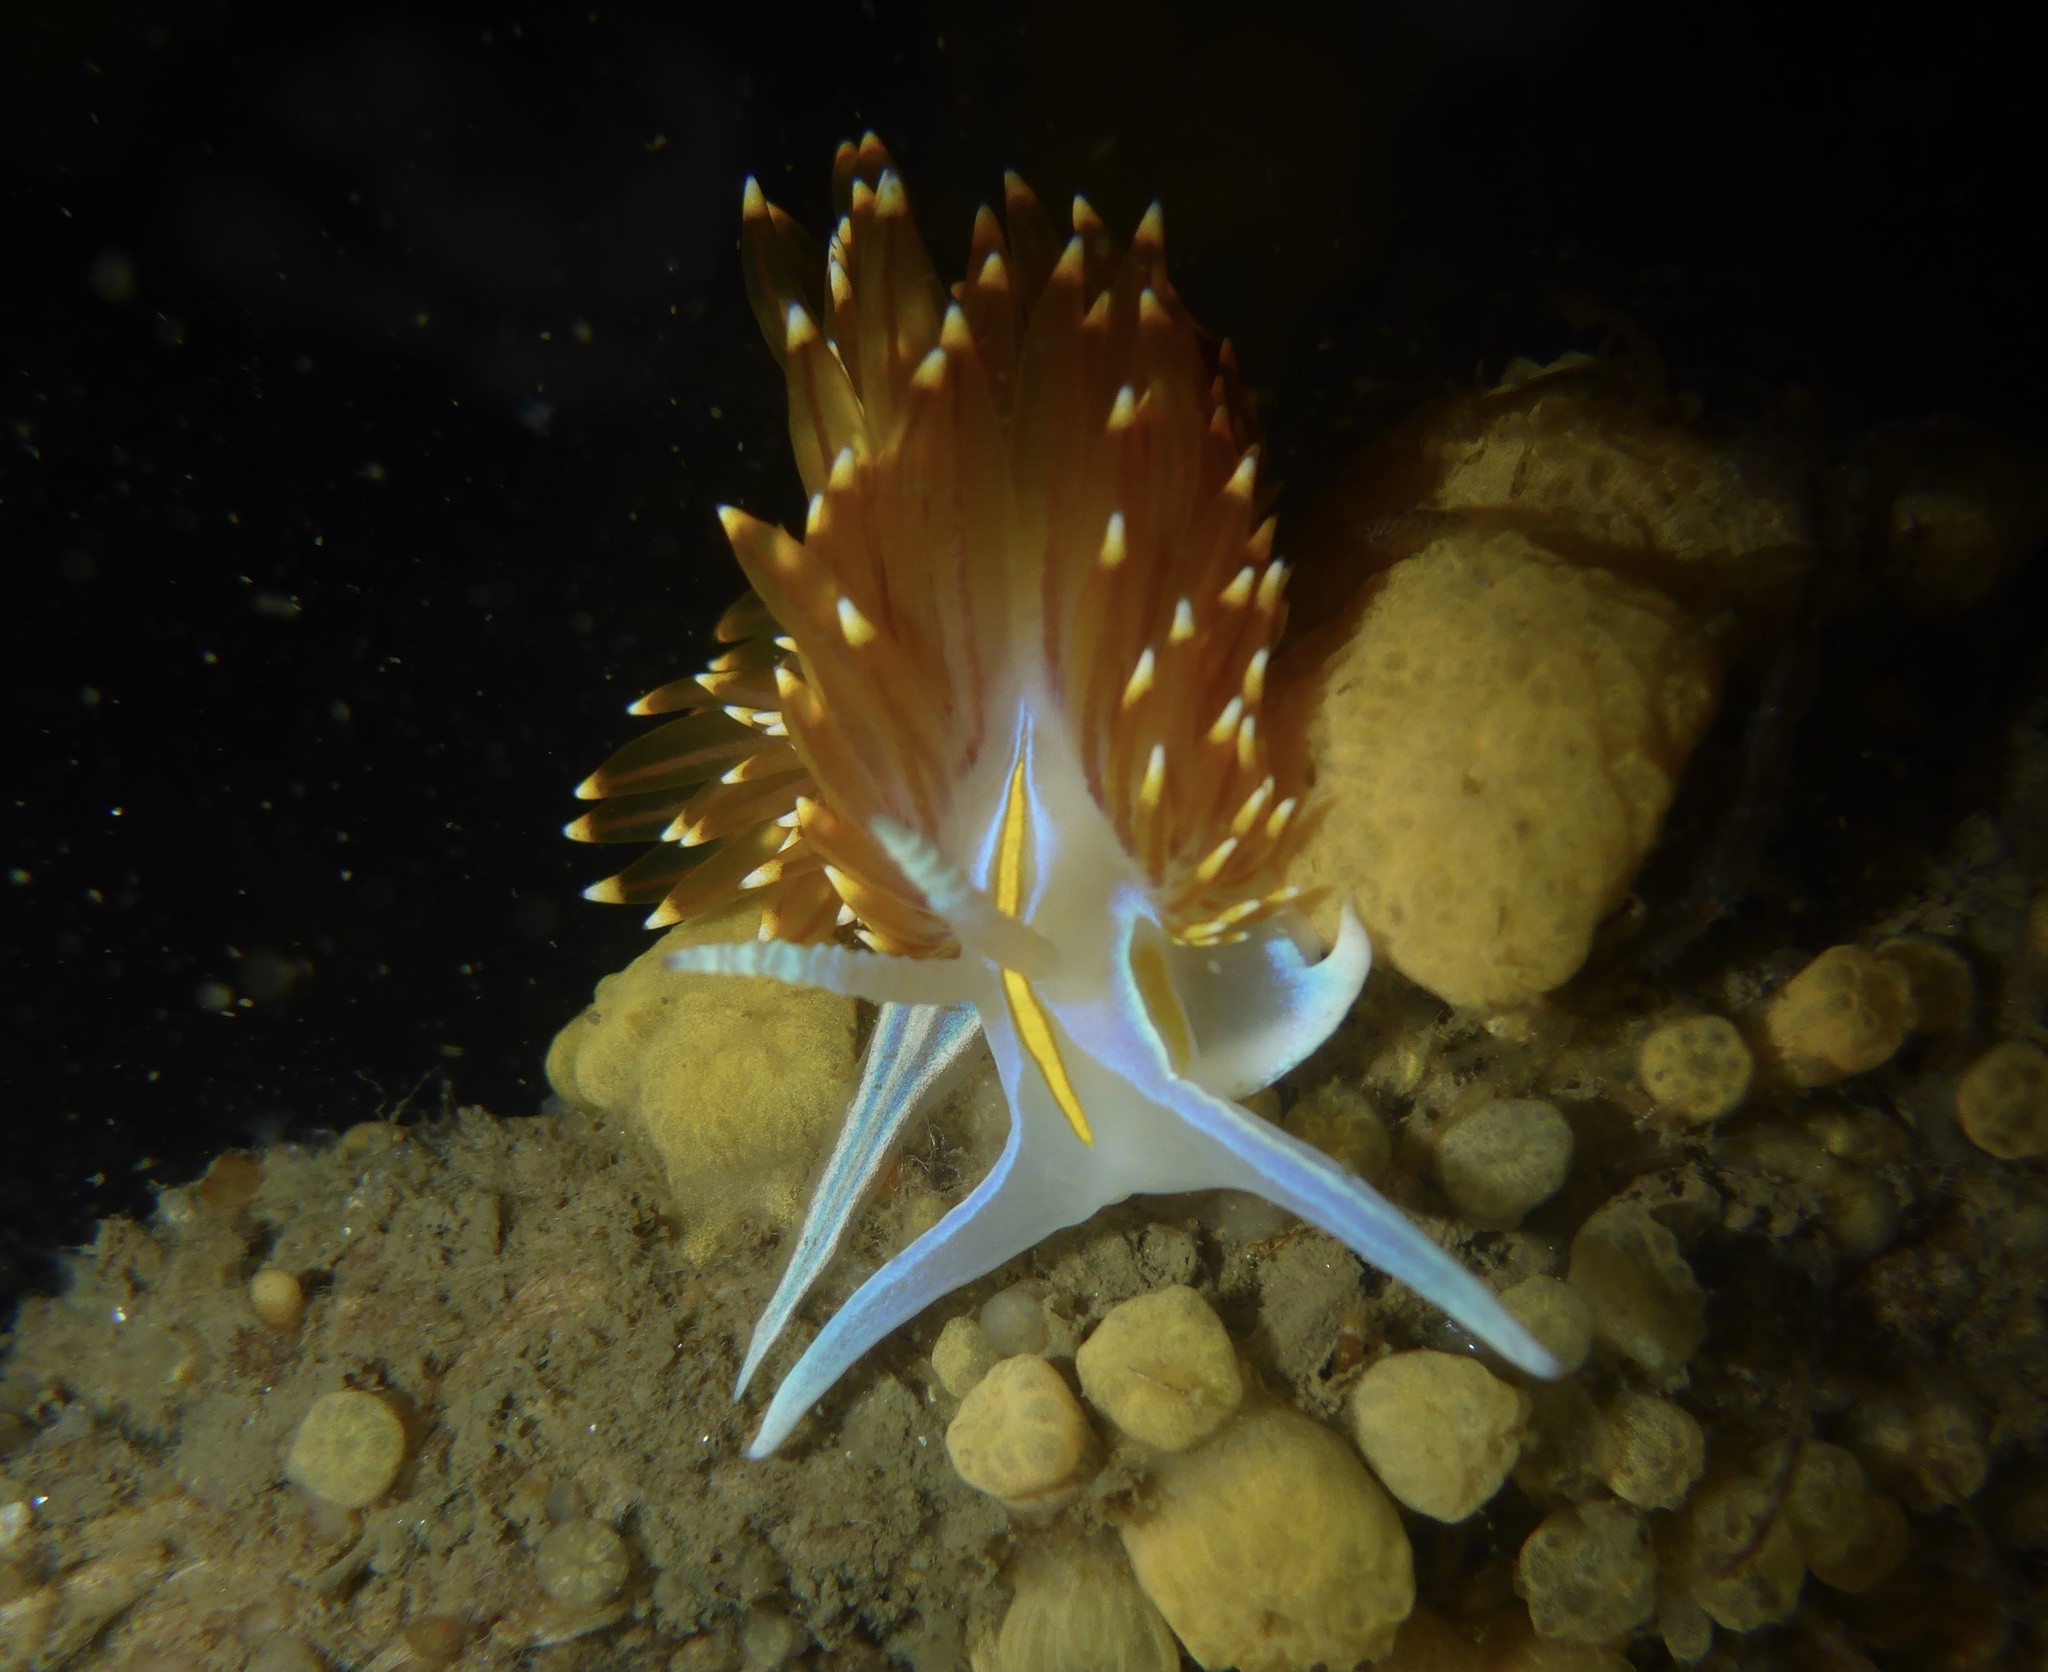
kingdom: Animalia
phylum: Mollusca
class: Gastropoda
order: Nudibranchia
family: Myrrhinidae
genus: Hermissenda
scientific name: Hermissenda opalescens
